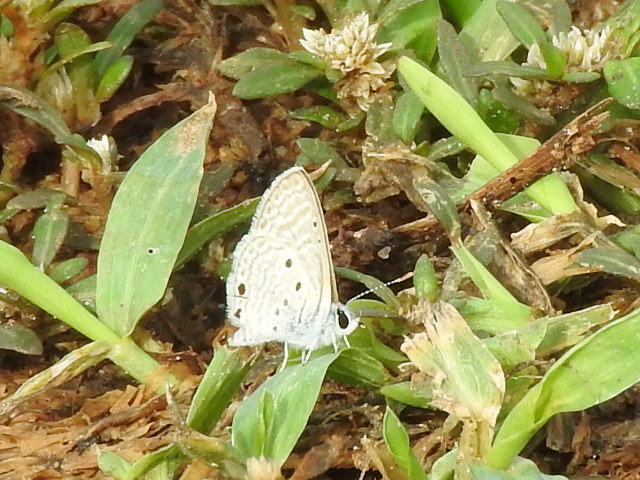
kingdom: Animalia
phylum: Arthropoda
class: Insecta
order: Lepidoptera
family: Lycaenidae
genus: Azanus
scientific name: Azanus ubaldus
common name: Desert babul blue
